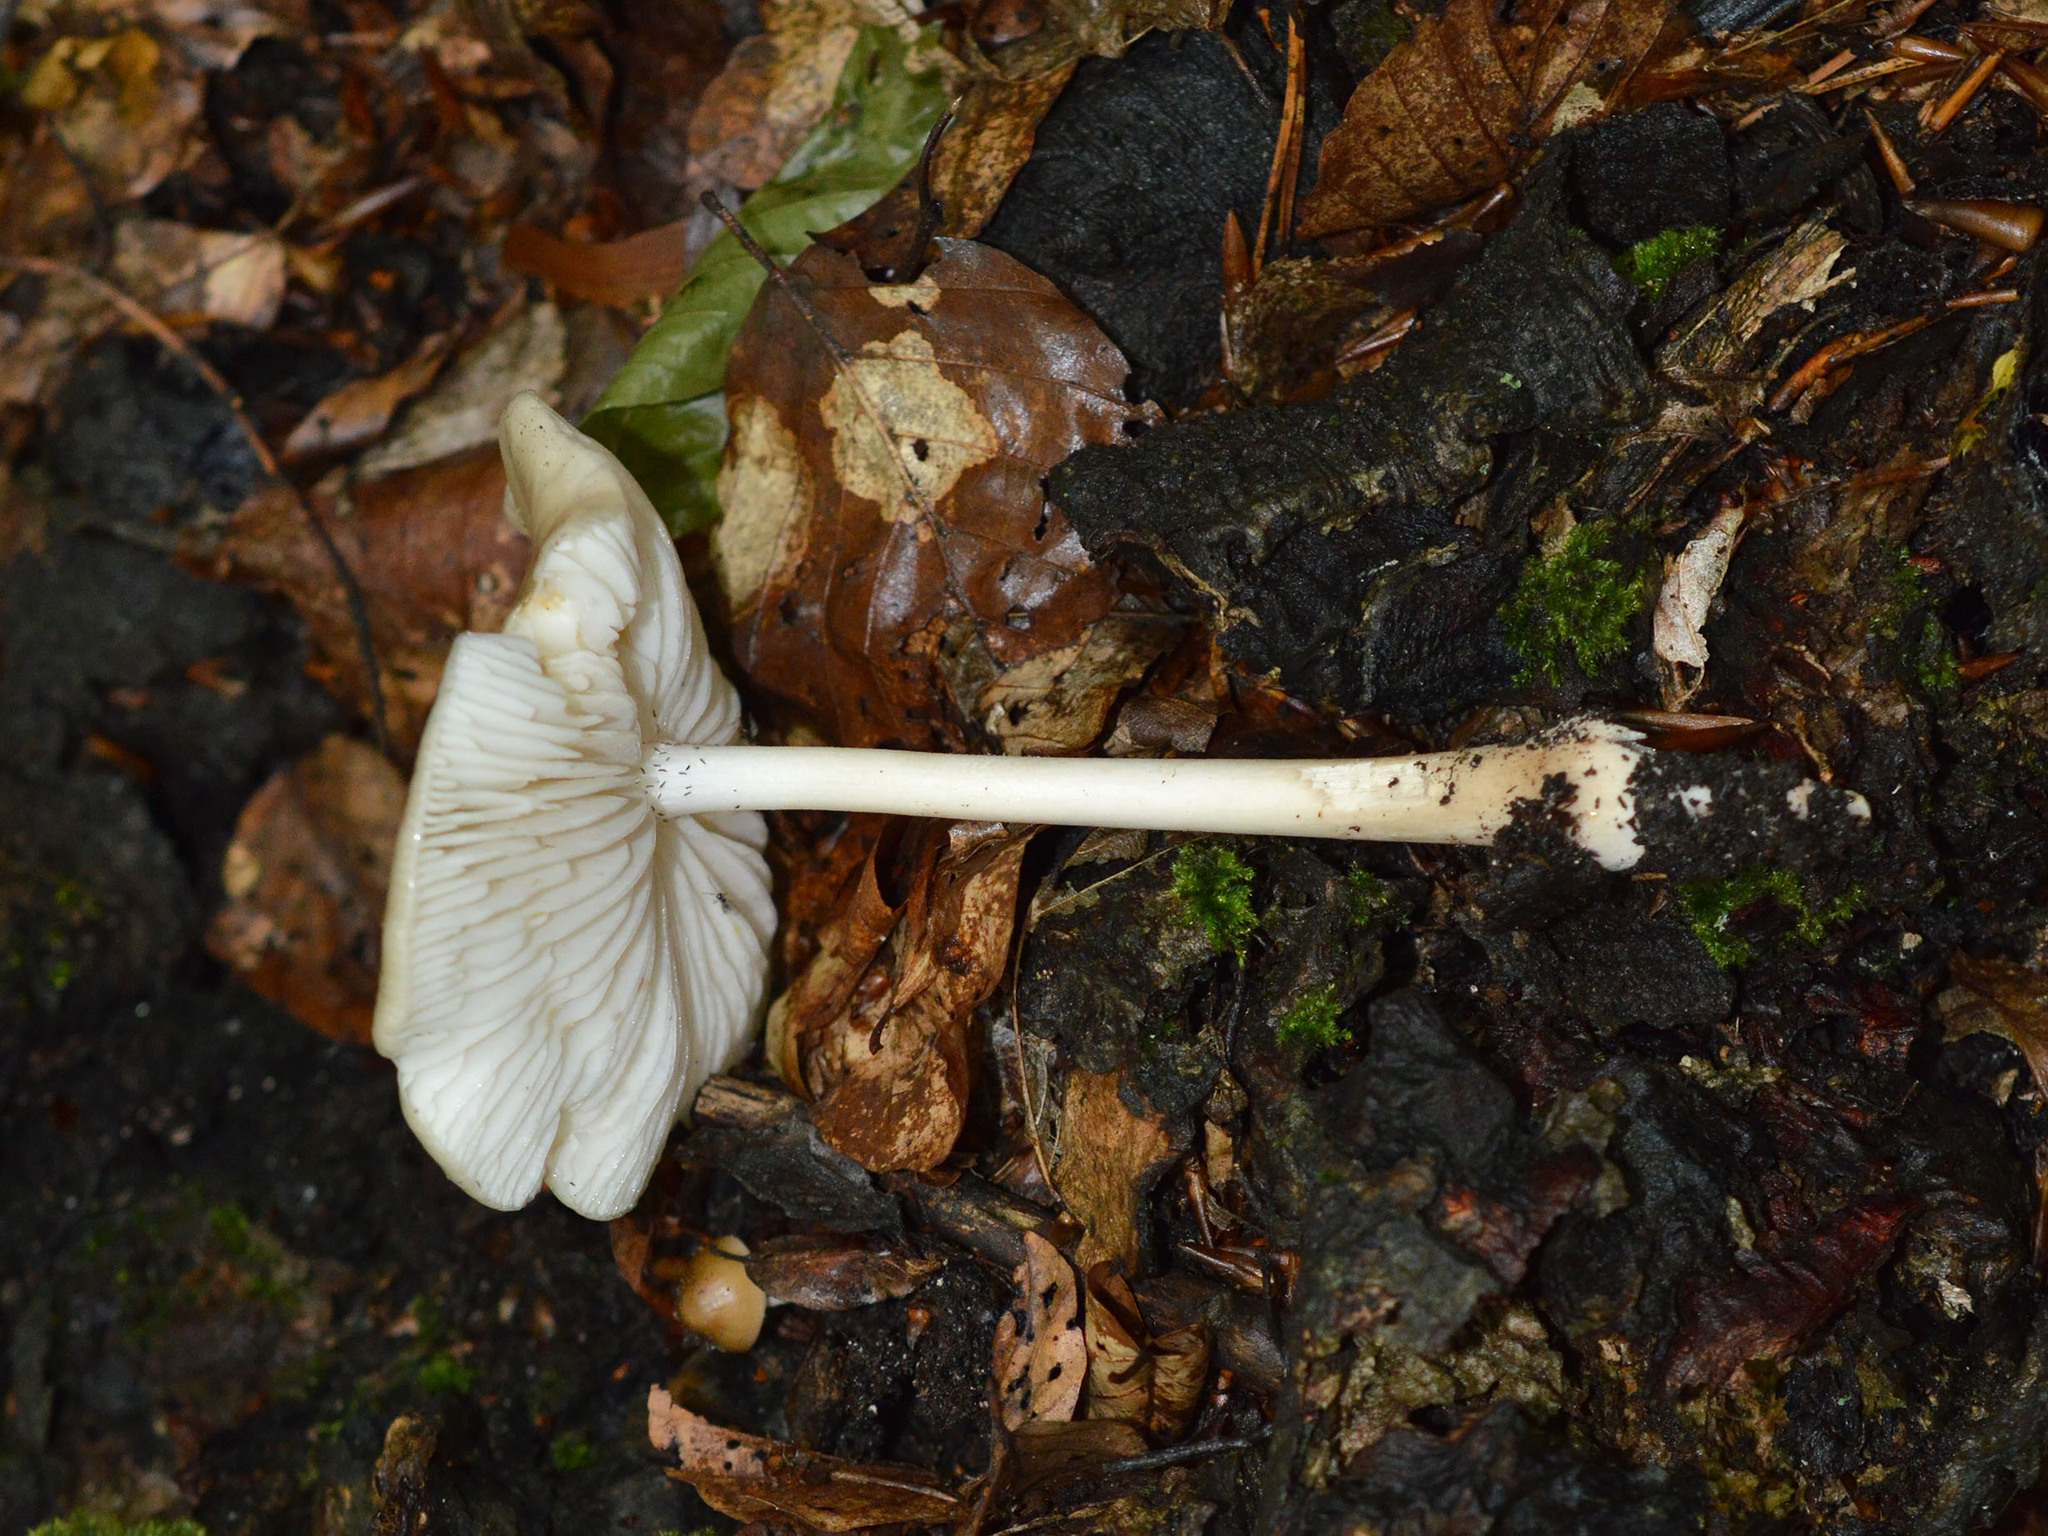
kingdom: Fungi
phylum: Basidiomycota
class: Agaricomycetes
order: Agaricales
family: Physalacriaceae
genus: Hymenopellis
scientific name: Hymenopellis radicata
